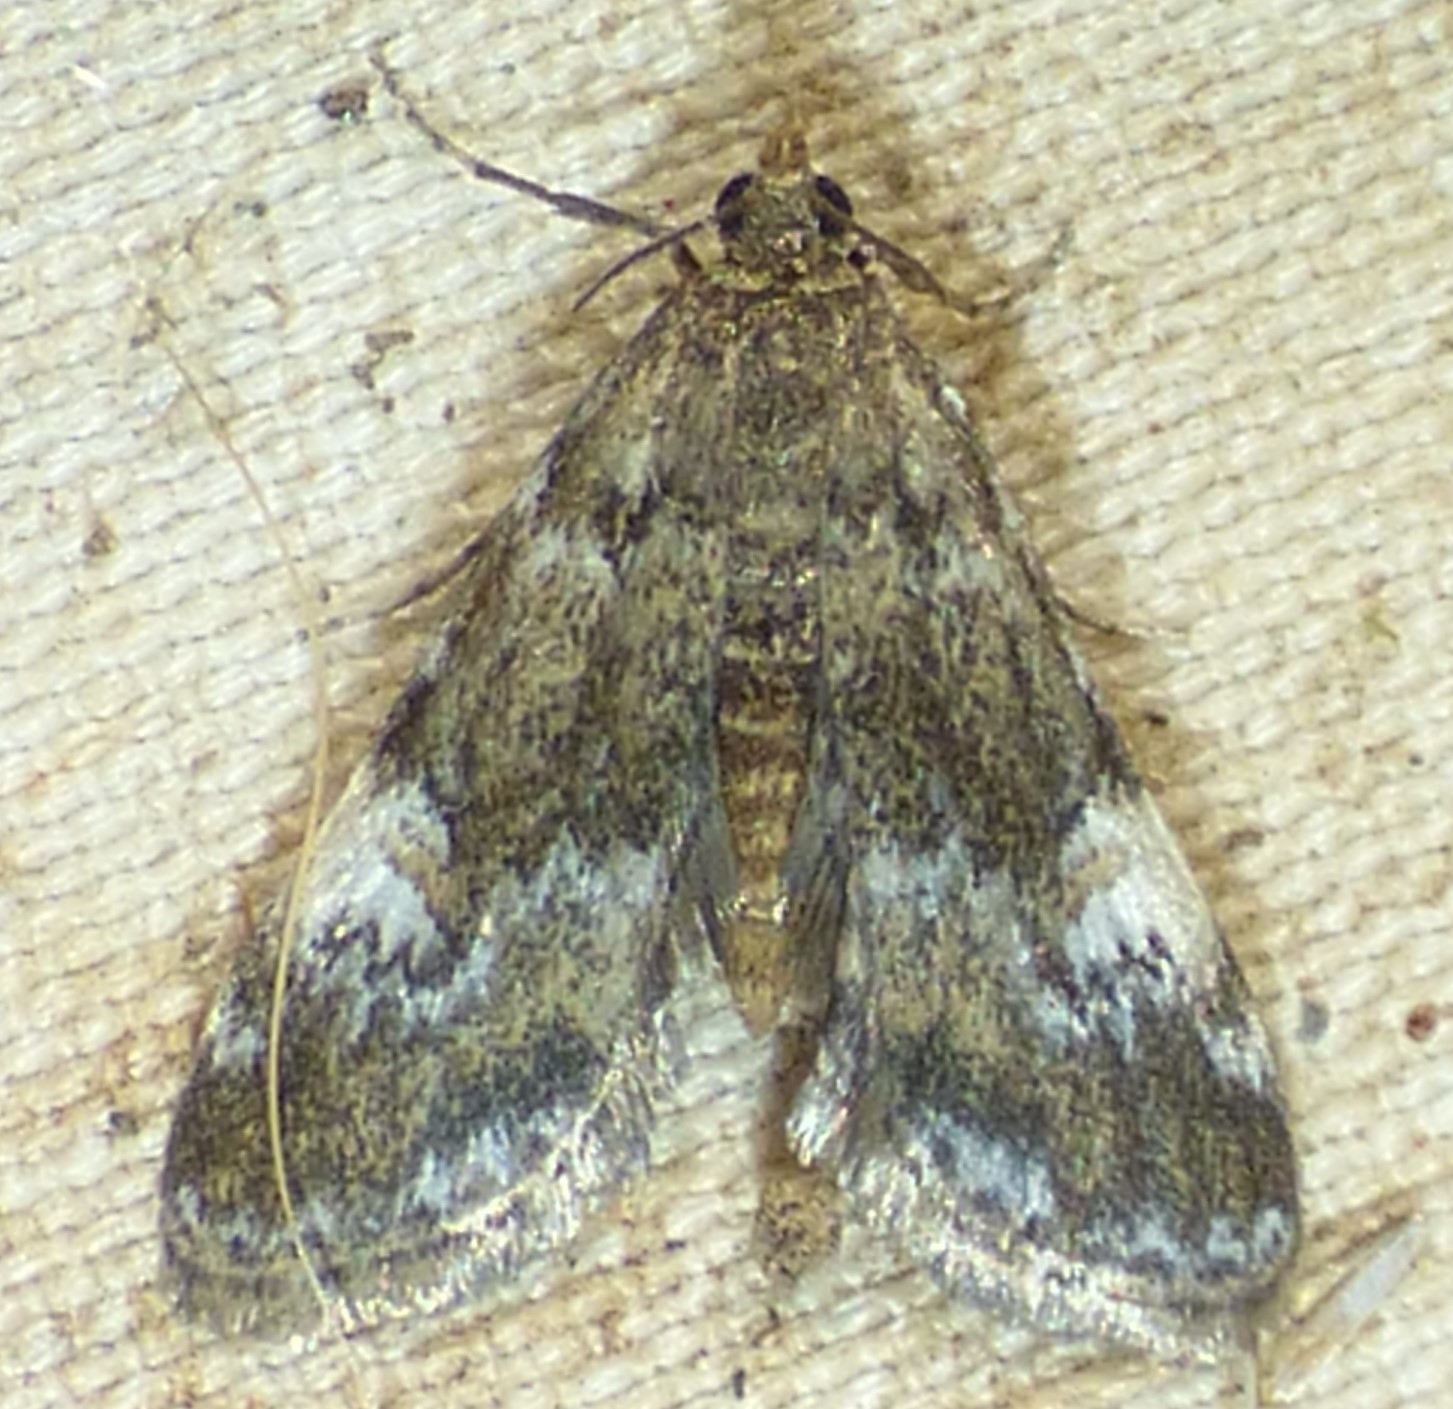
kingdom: Animalia
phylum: Arthropoda
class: Insecta
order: Lepidoptera
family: Crambidae
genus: Elophila
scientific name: Elophila obliteralis
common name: Waterlily leafcutter moth
